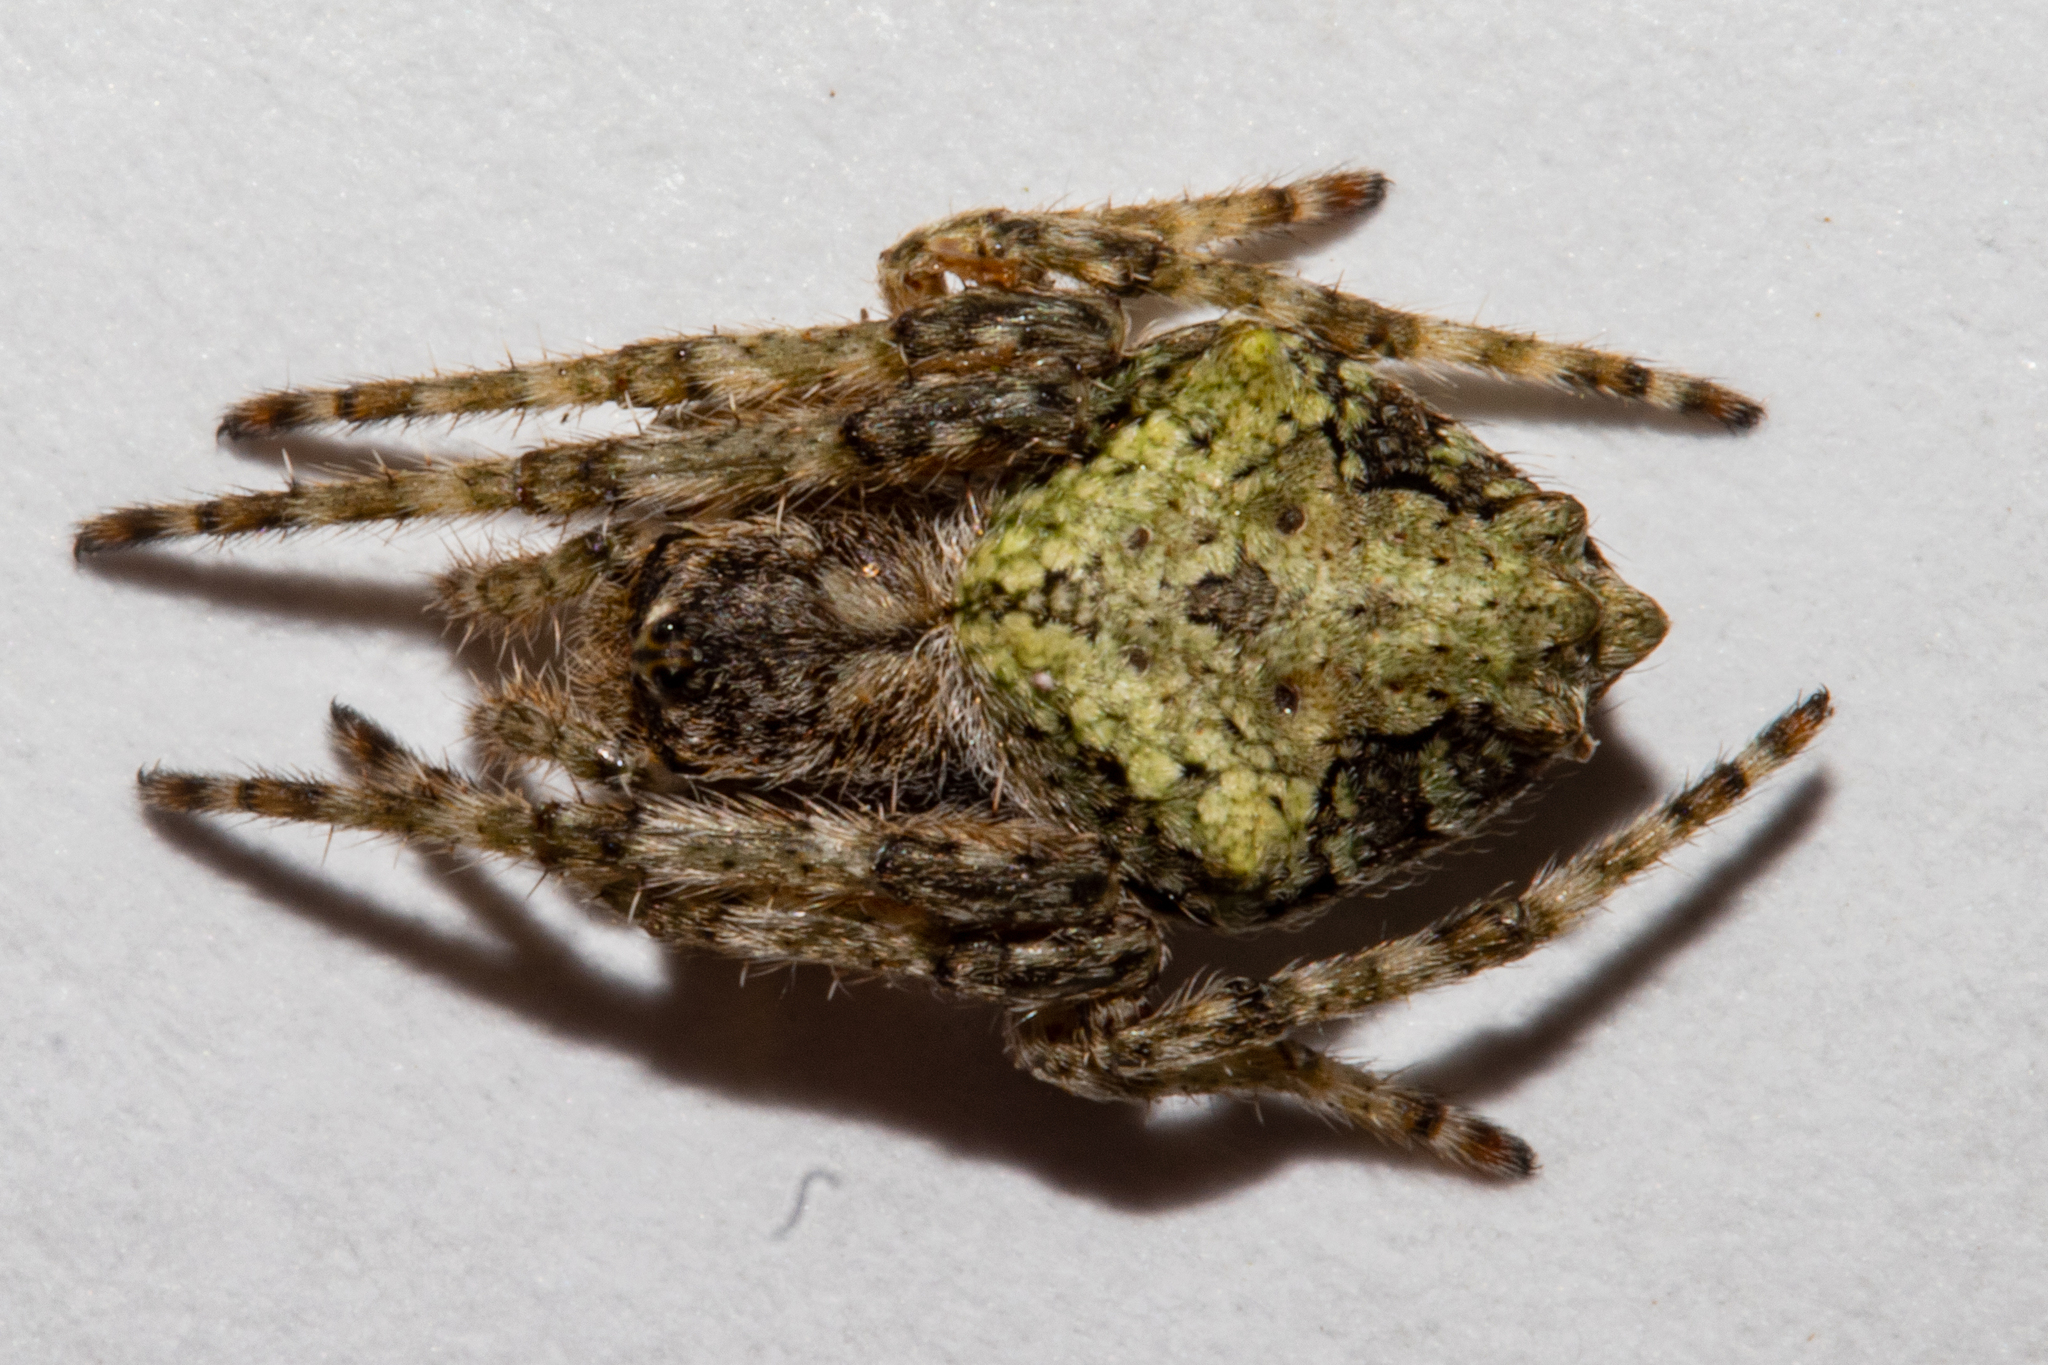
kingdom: Animalia
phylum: Arthropoda
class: Arachnida
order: Araneae
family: Araneidae
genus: Eriophora
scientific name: Eriophora pustulosa
